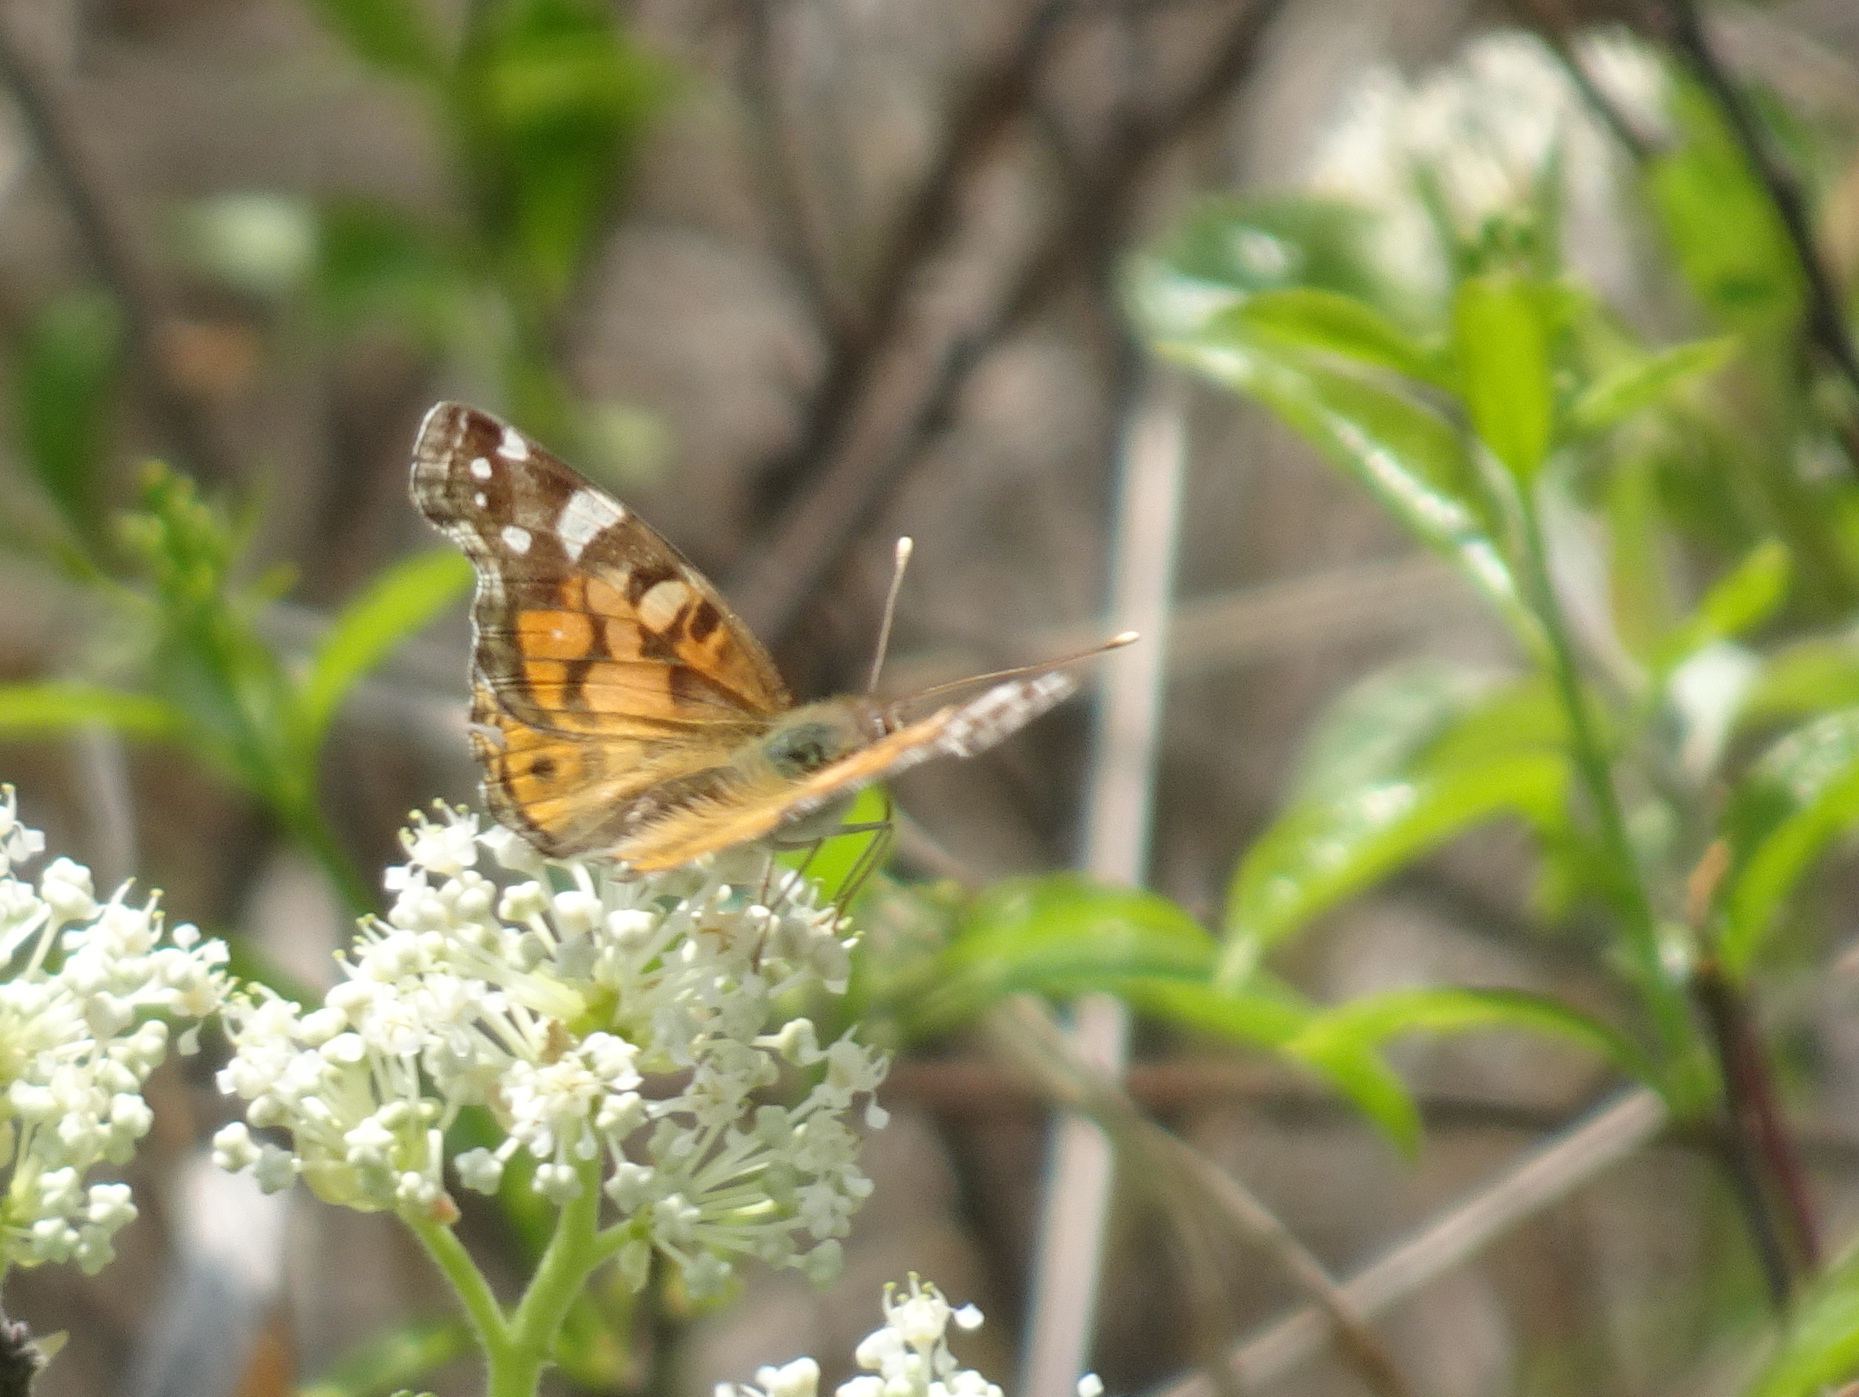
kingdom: Animalia
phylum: Arthropoda
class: Insecta
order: Lepidoptera
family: Nymphalidae
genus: Vanessa
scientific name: Vanessa virginiensis
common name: American lady
